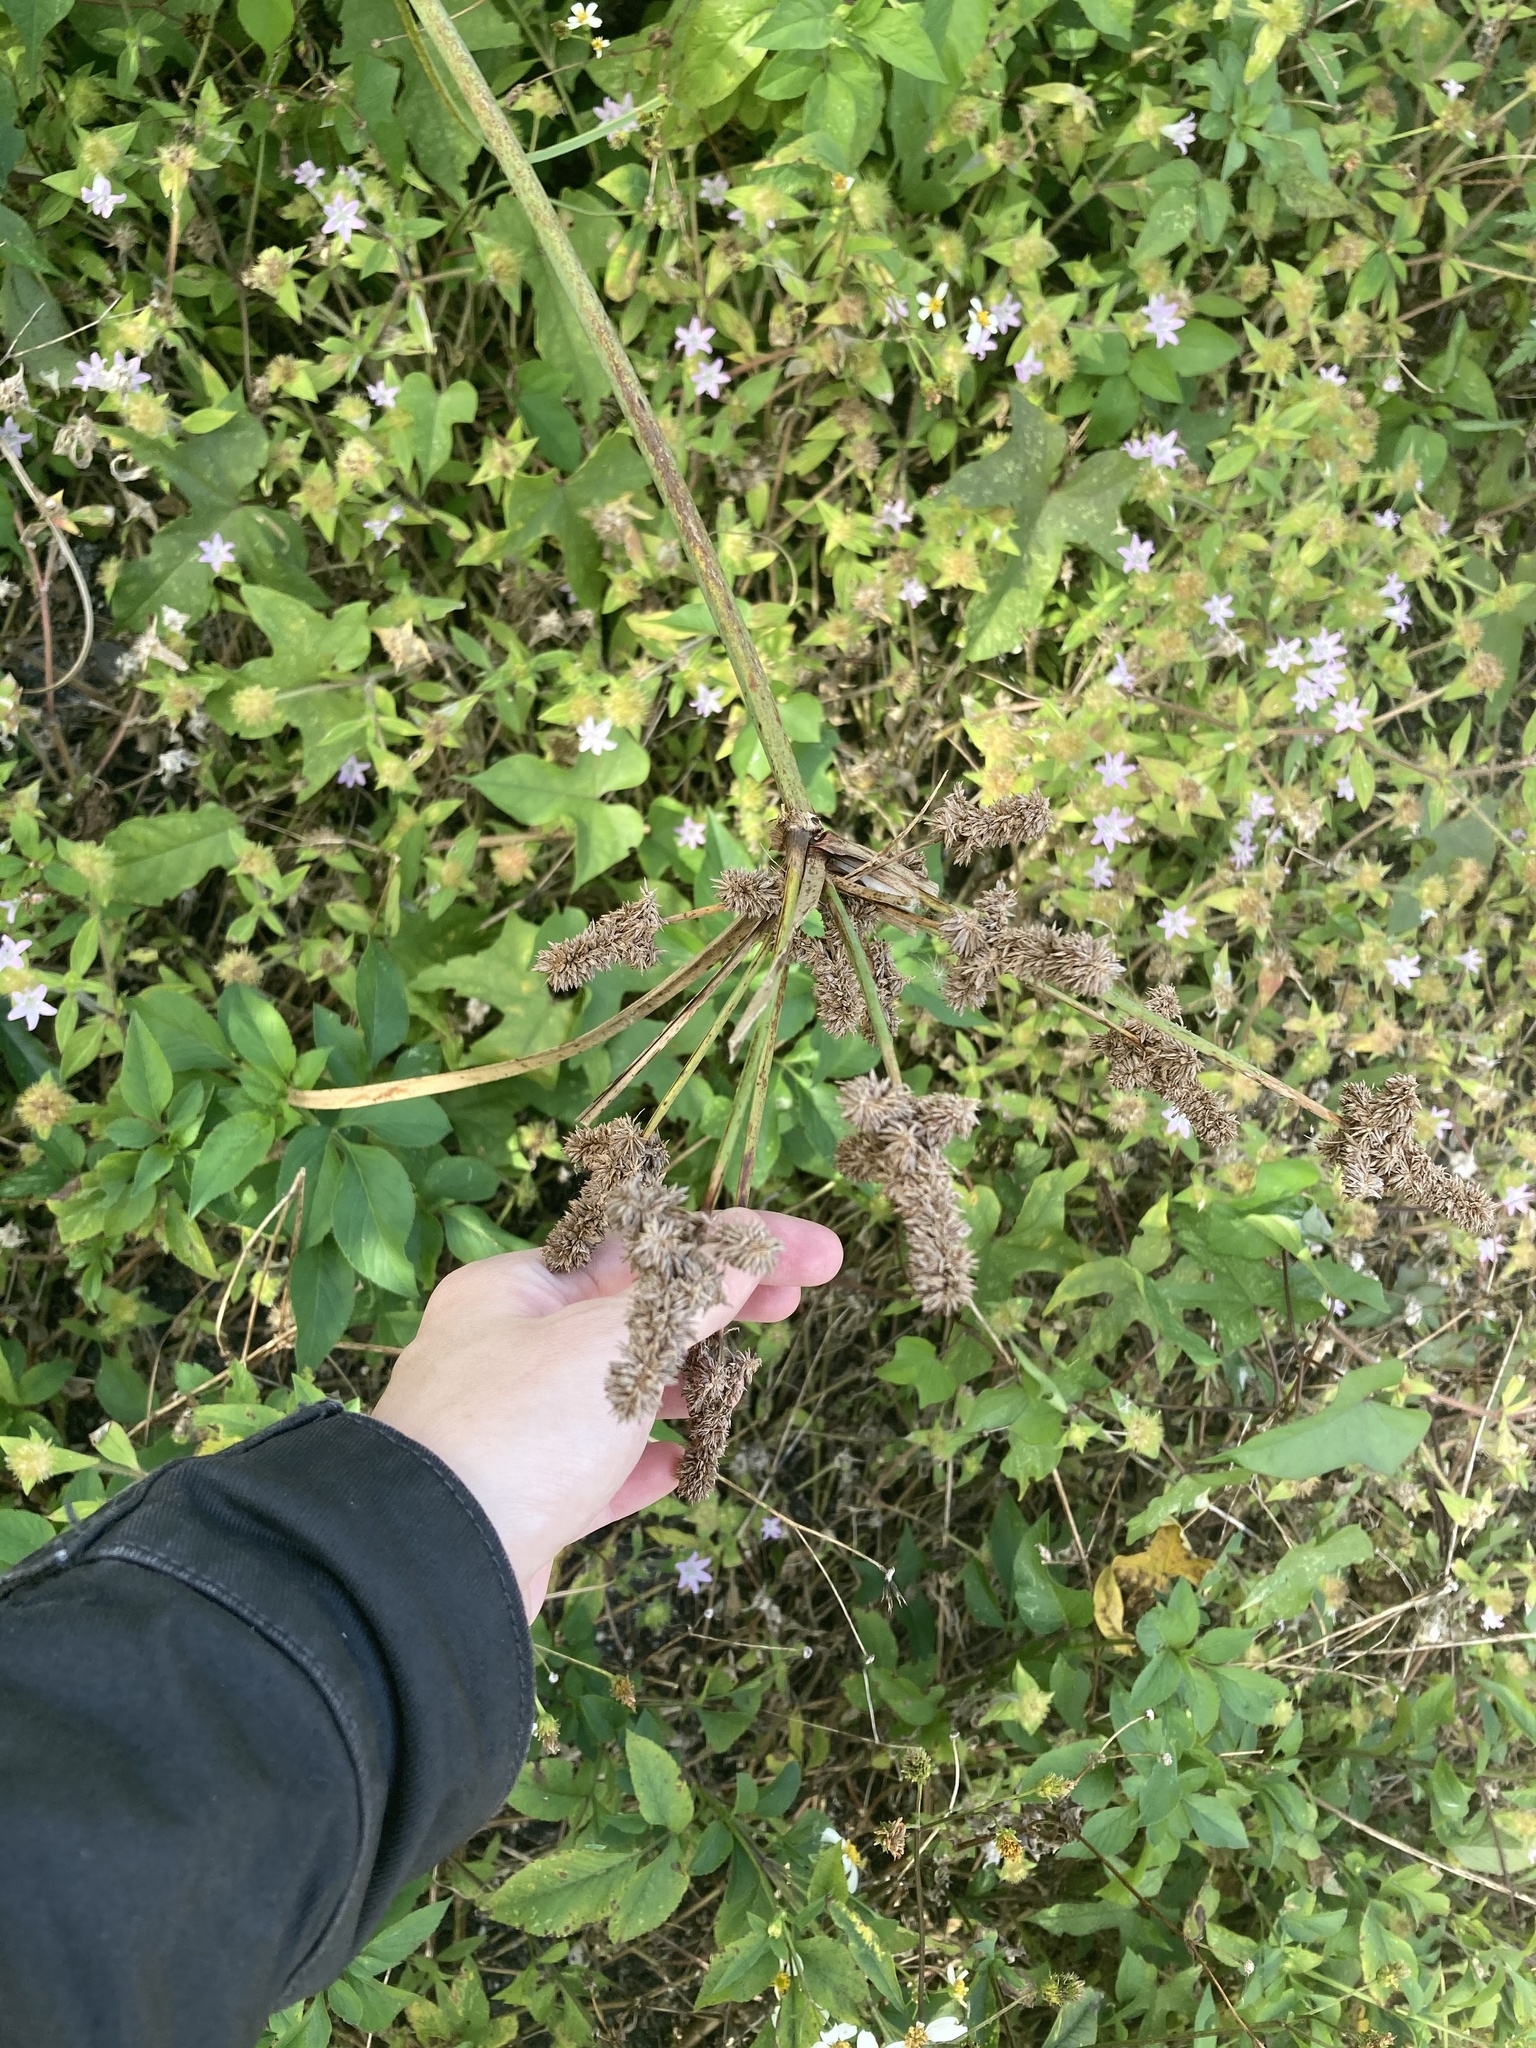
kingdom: Plantae
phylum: Tracheophyta
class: Liliopsida
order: Poales
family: Cyperaceae
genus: Cyperus
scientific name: Cyperus ligularis
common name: Swamp flat sedge
